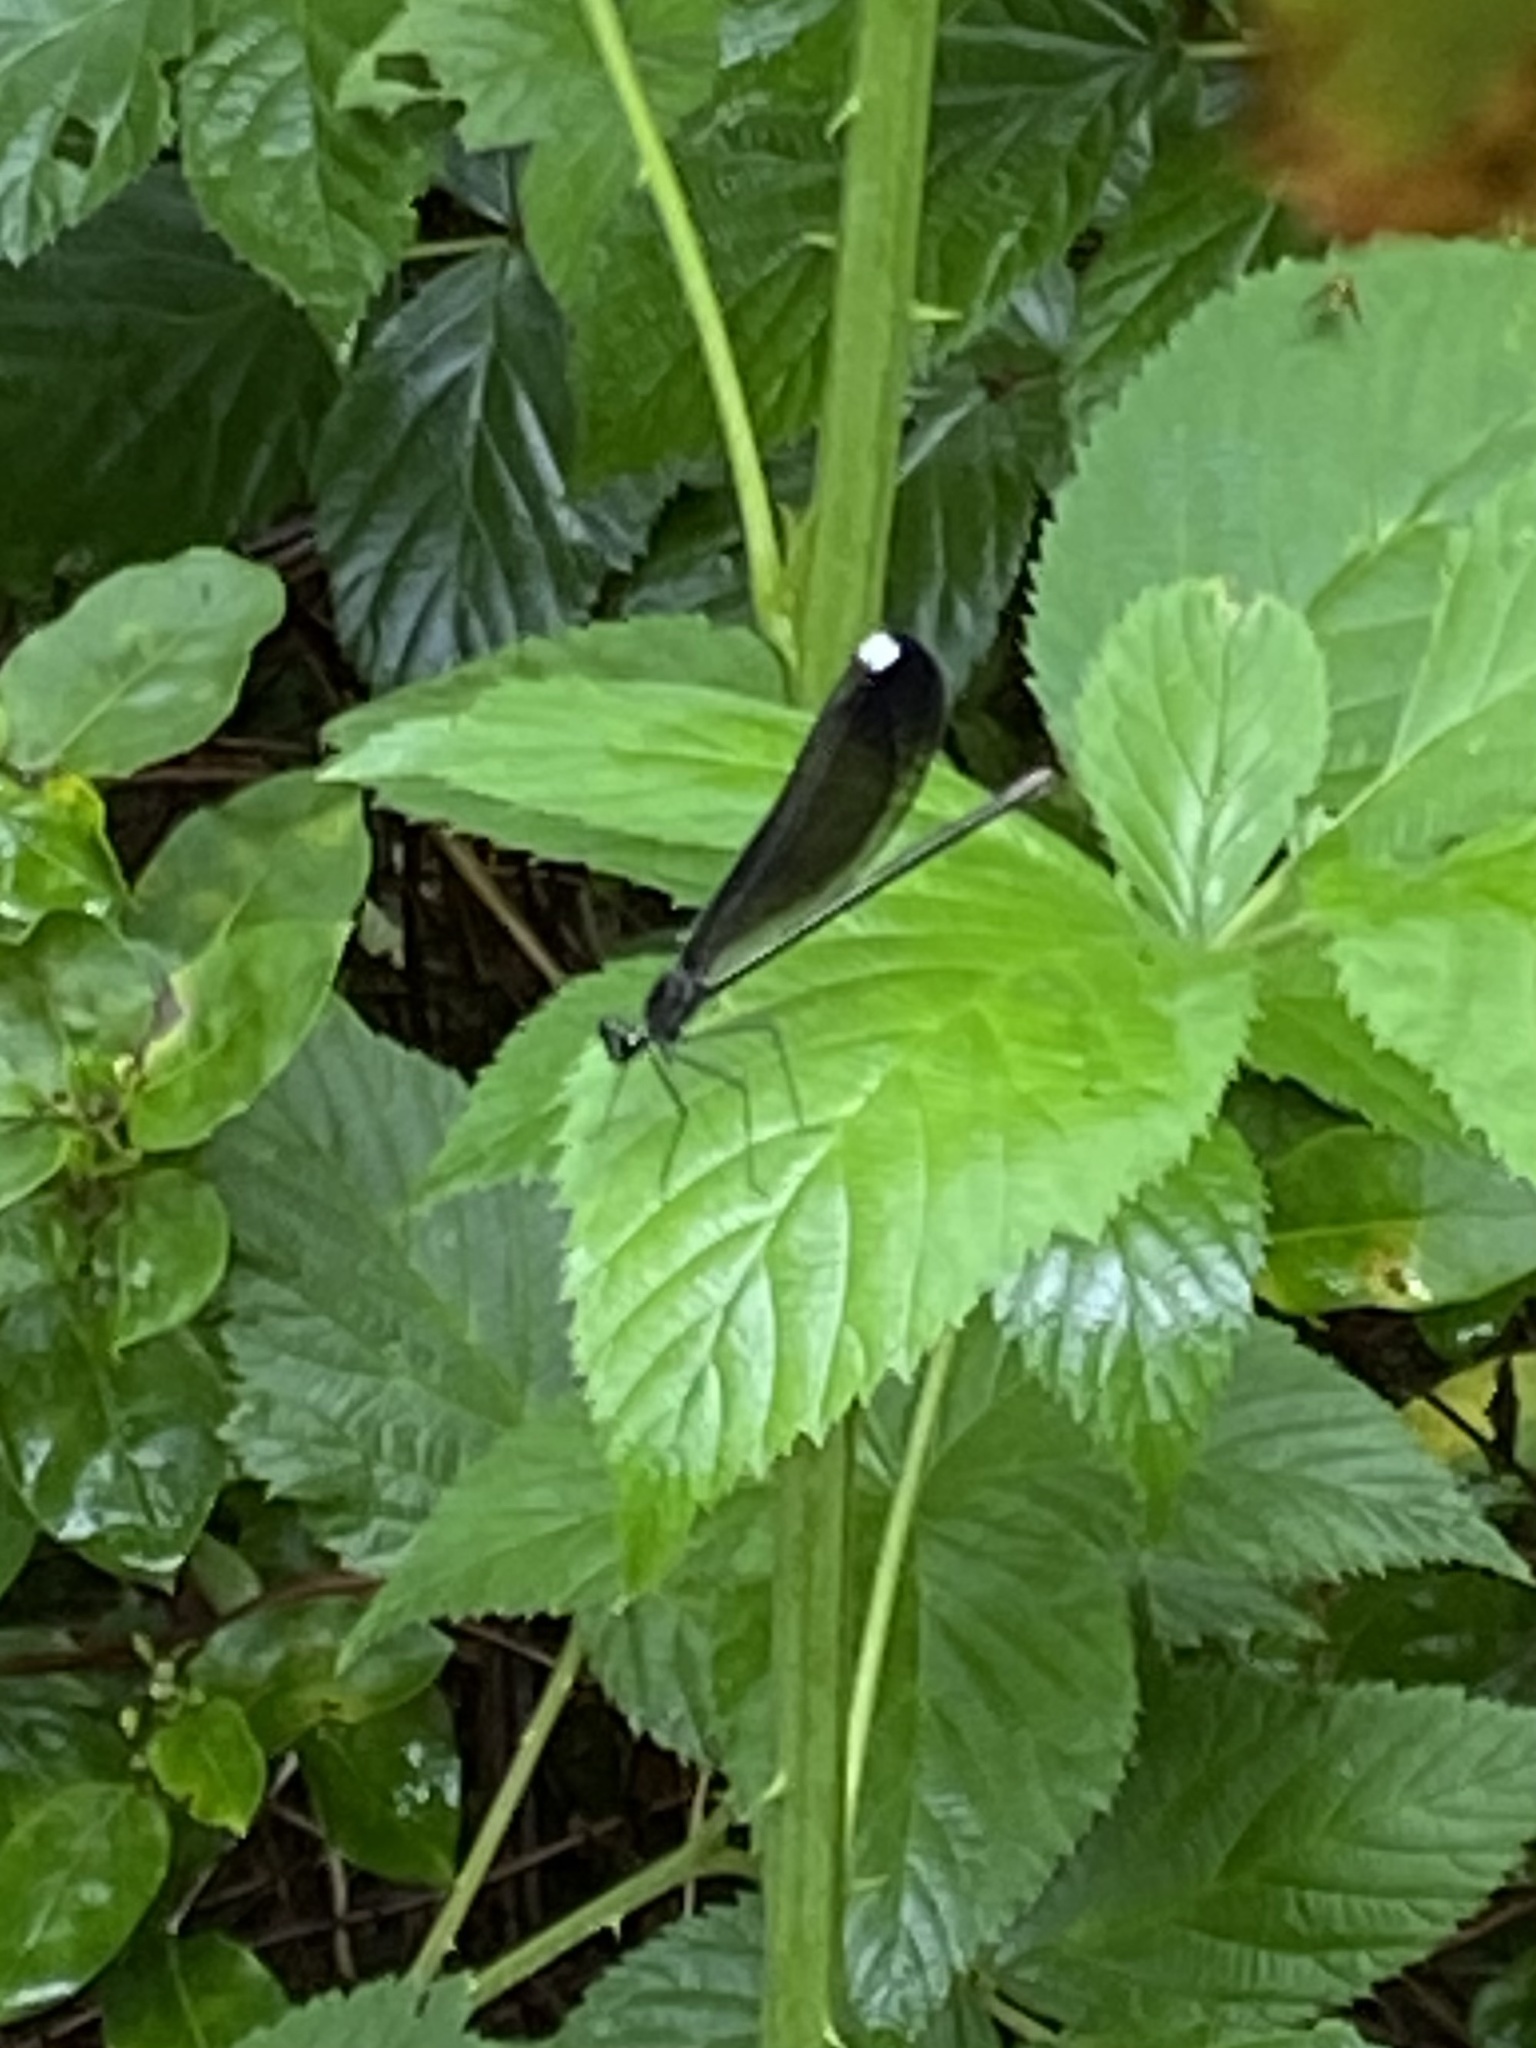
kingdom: Animalia
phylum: Arthropoda
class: Insecta
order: Odonata
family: Calopterygidae
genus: Calopteryx
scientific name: Calopteryx maculata
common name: Ebony jewelwing
